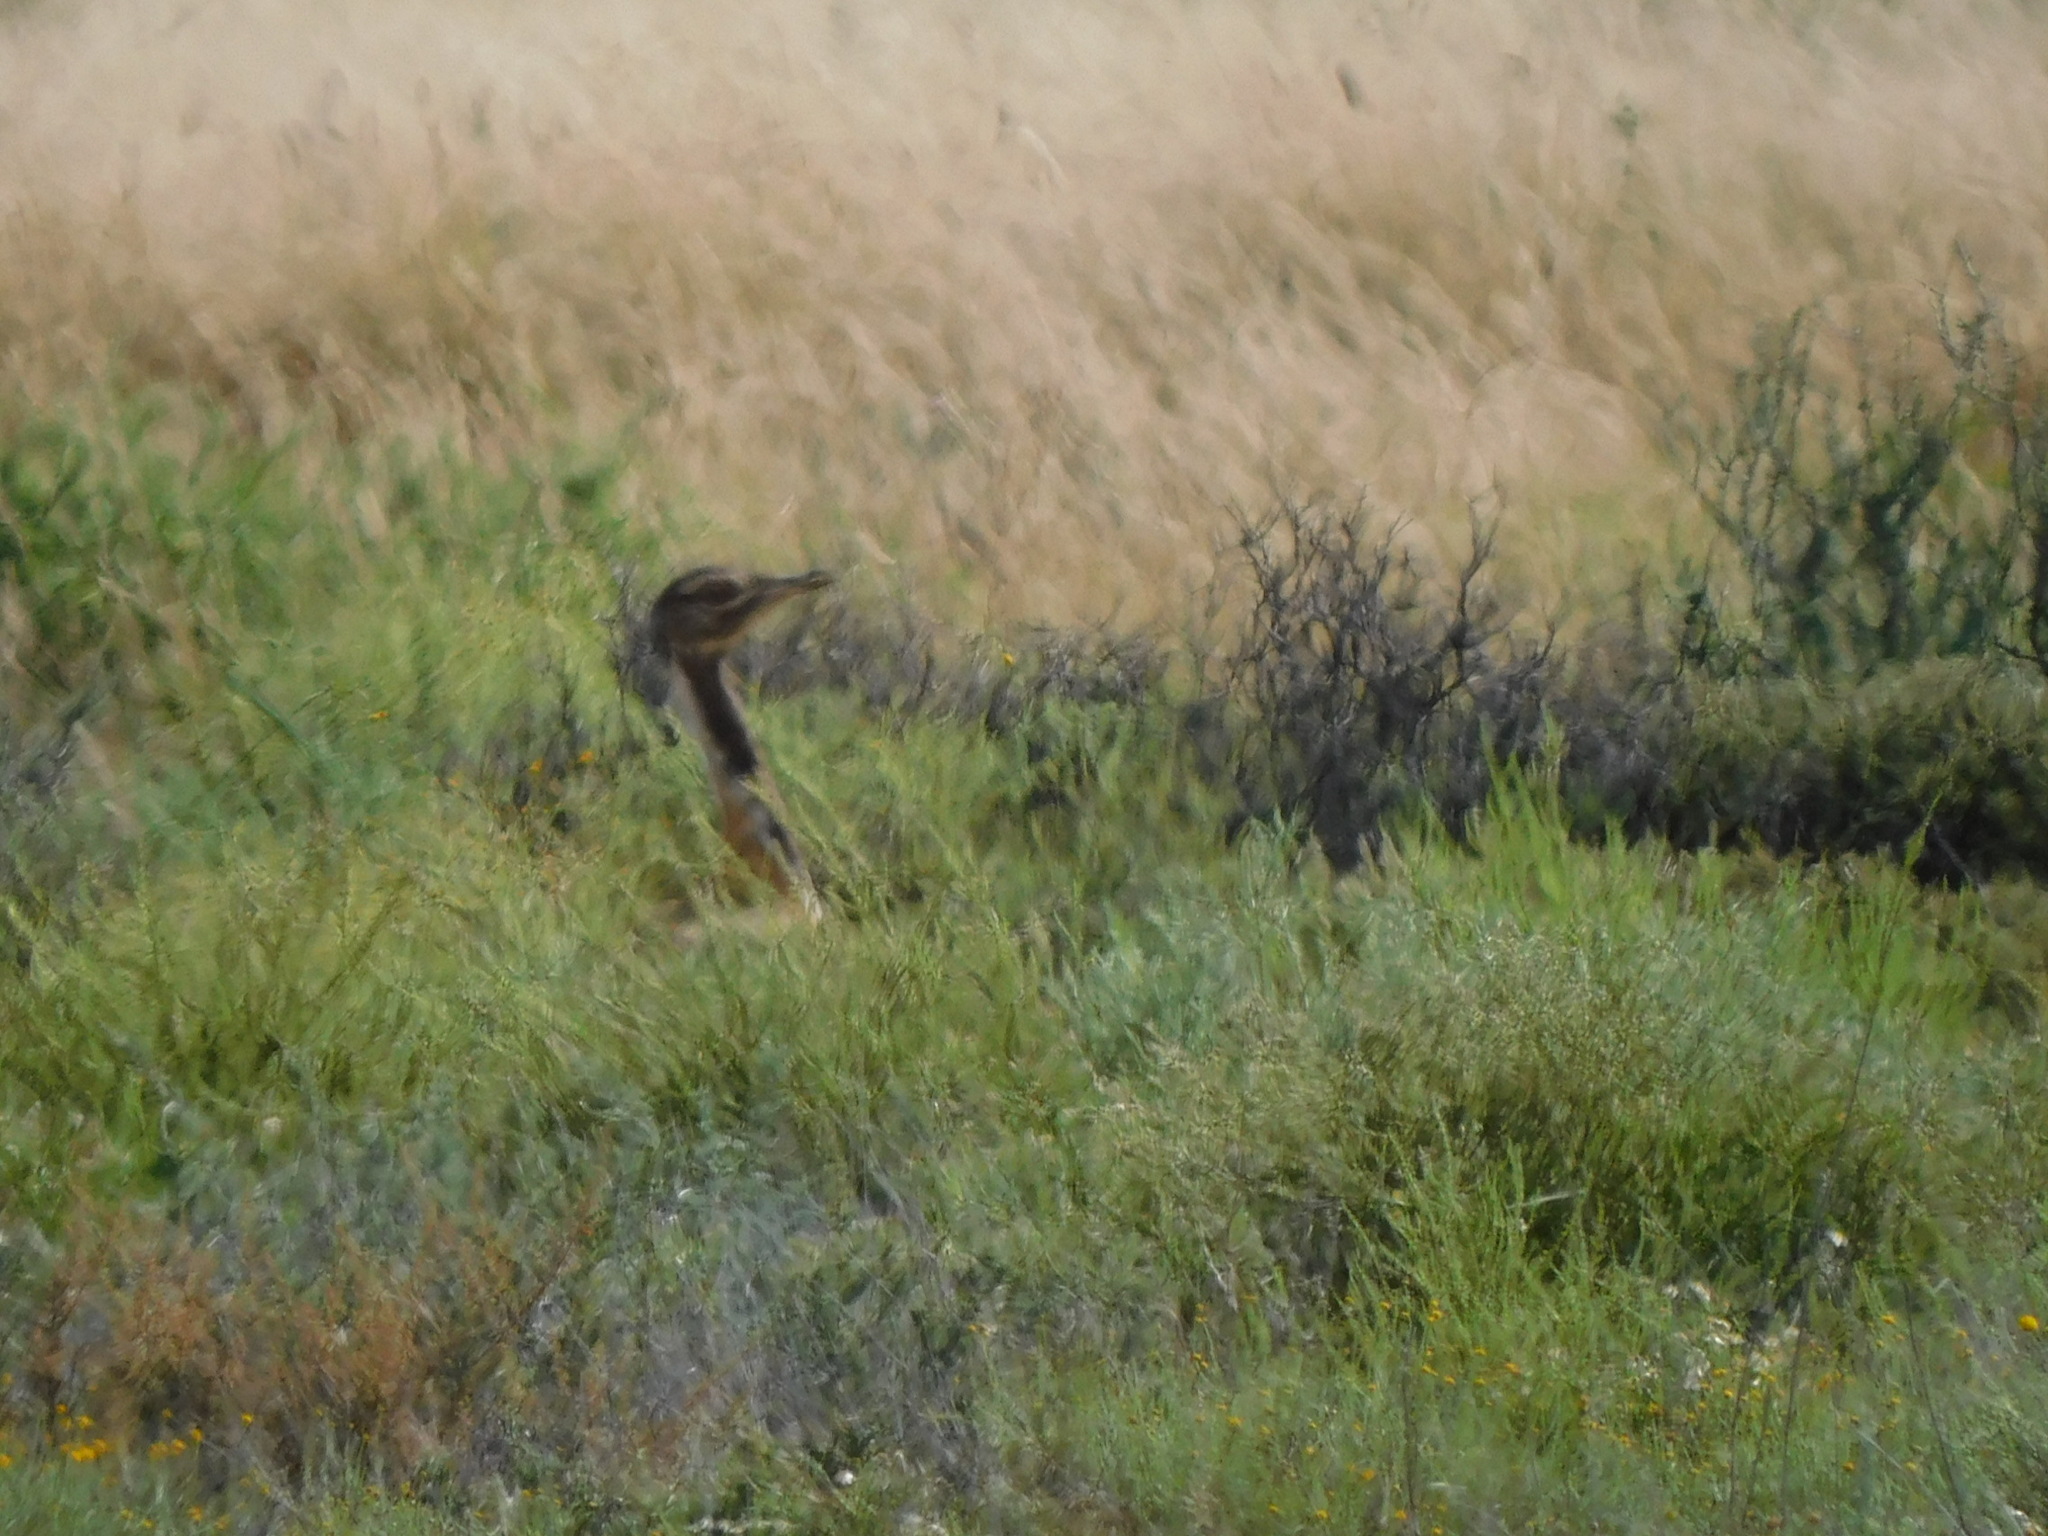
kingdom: Animalia
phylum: Chordata
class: Aves
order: Otidiformes
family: Otididae
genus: Neotis
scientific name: Neotis ludwigii
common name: Ludwig's bustard
